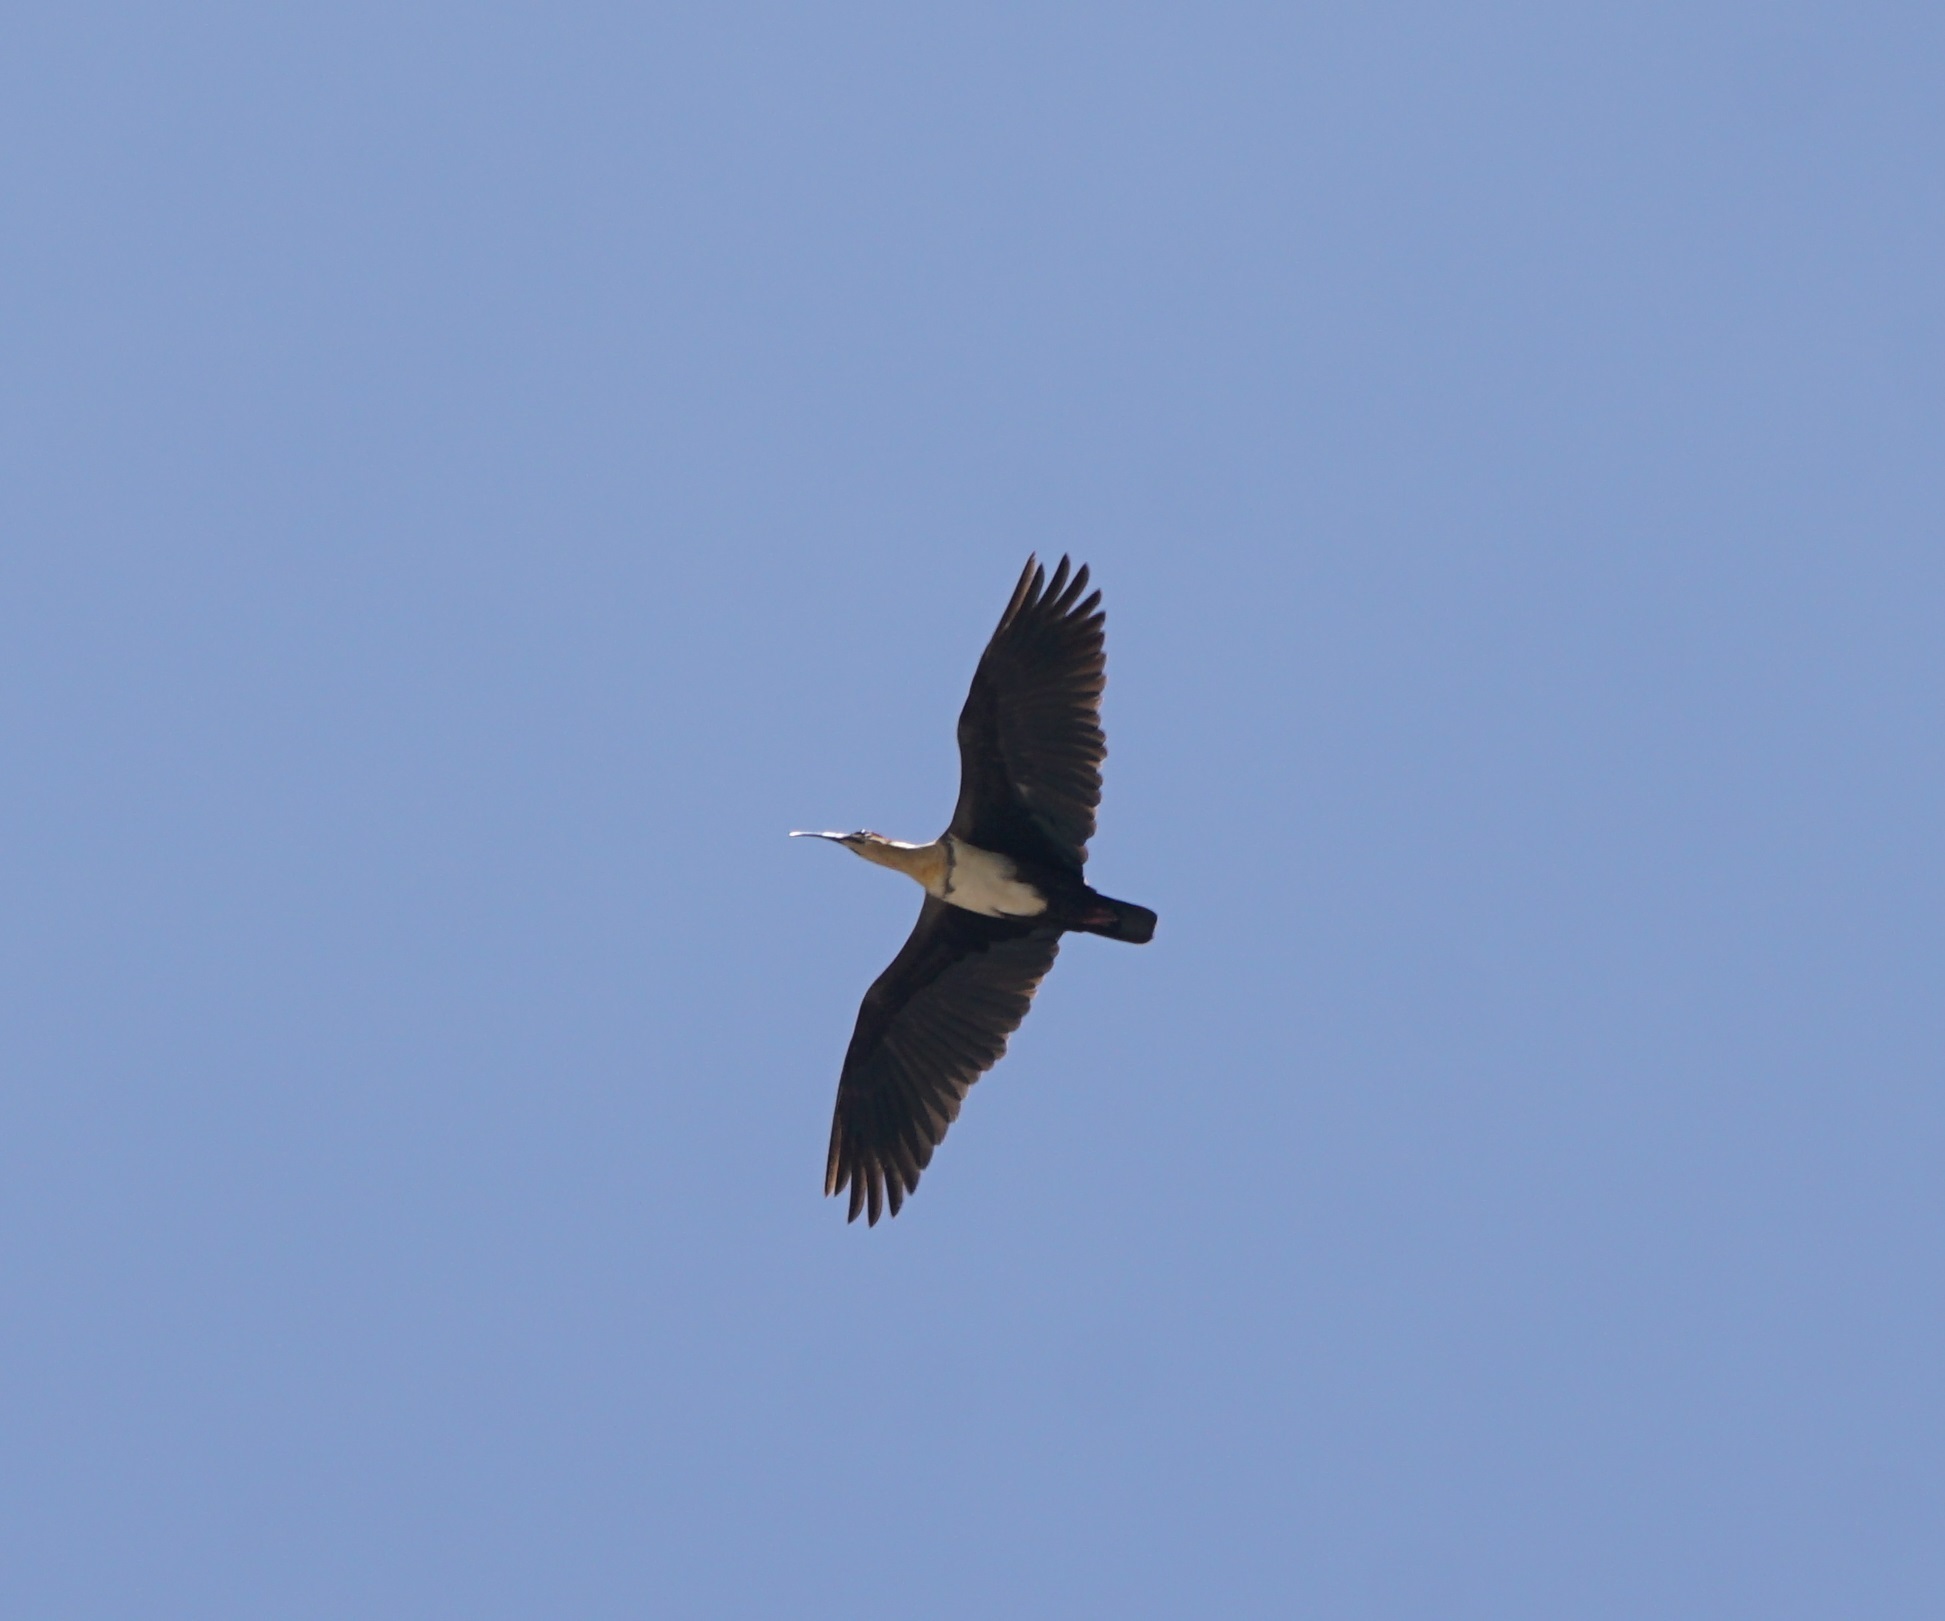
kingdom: Animalia
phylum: Chordata
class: Aves
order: Pelecaniformes
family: Threskiornithidae
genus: Theristicus
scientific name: Theristicus melanopis
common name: Black-faced ibis
